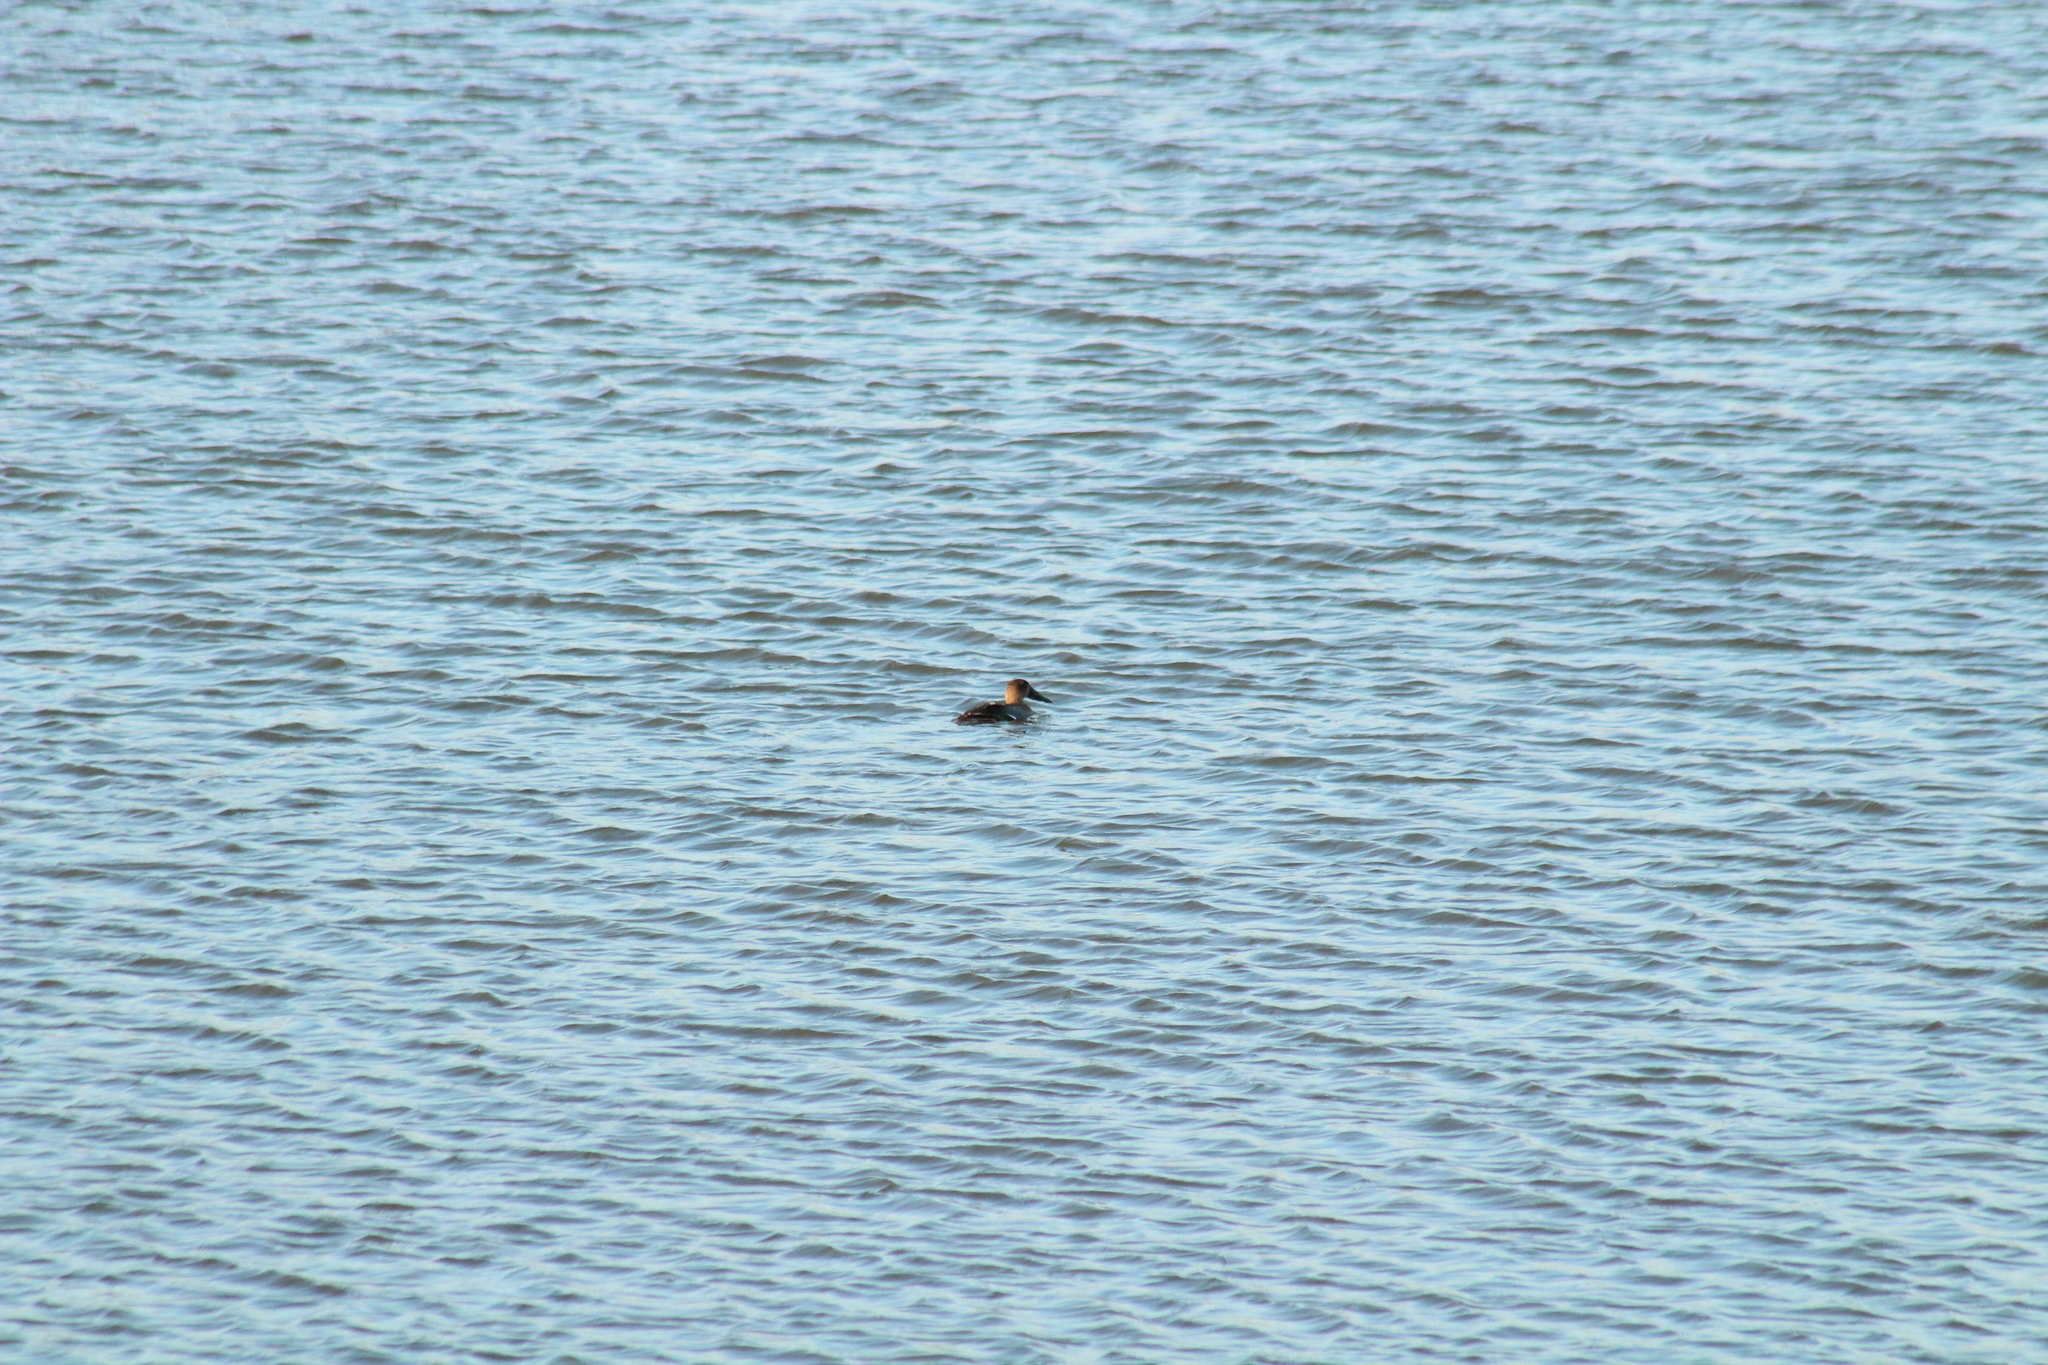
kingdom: Animalia
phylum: Chordata
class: Aves
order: Anseriformes
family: Anatidae
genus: Spatula
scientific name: Spatula clypeata
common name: Northern shoveler
